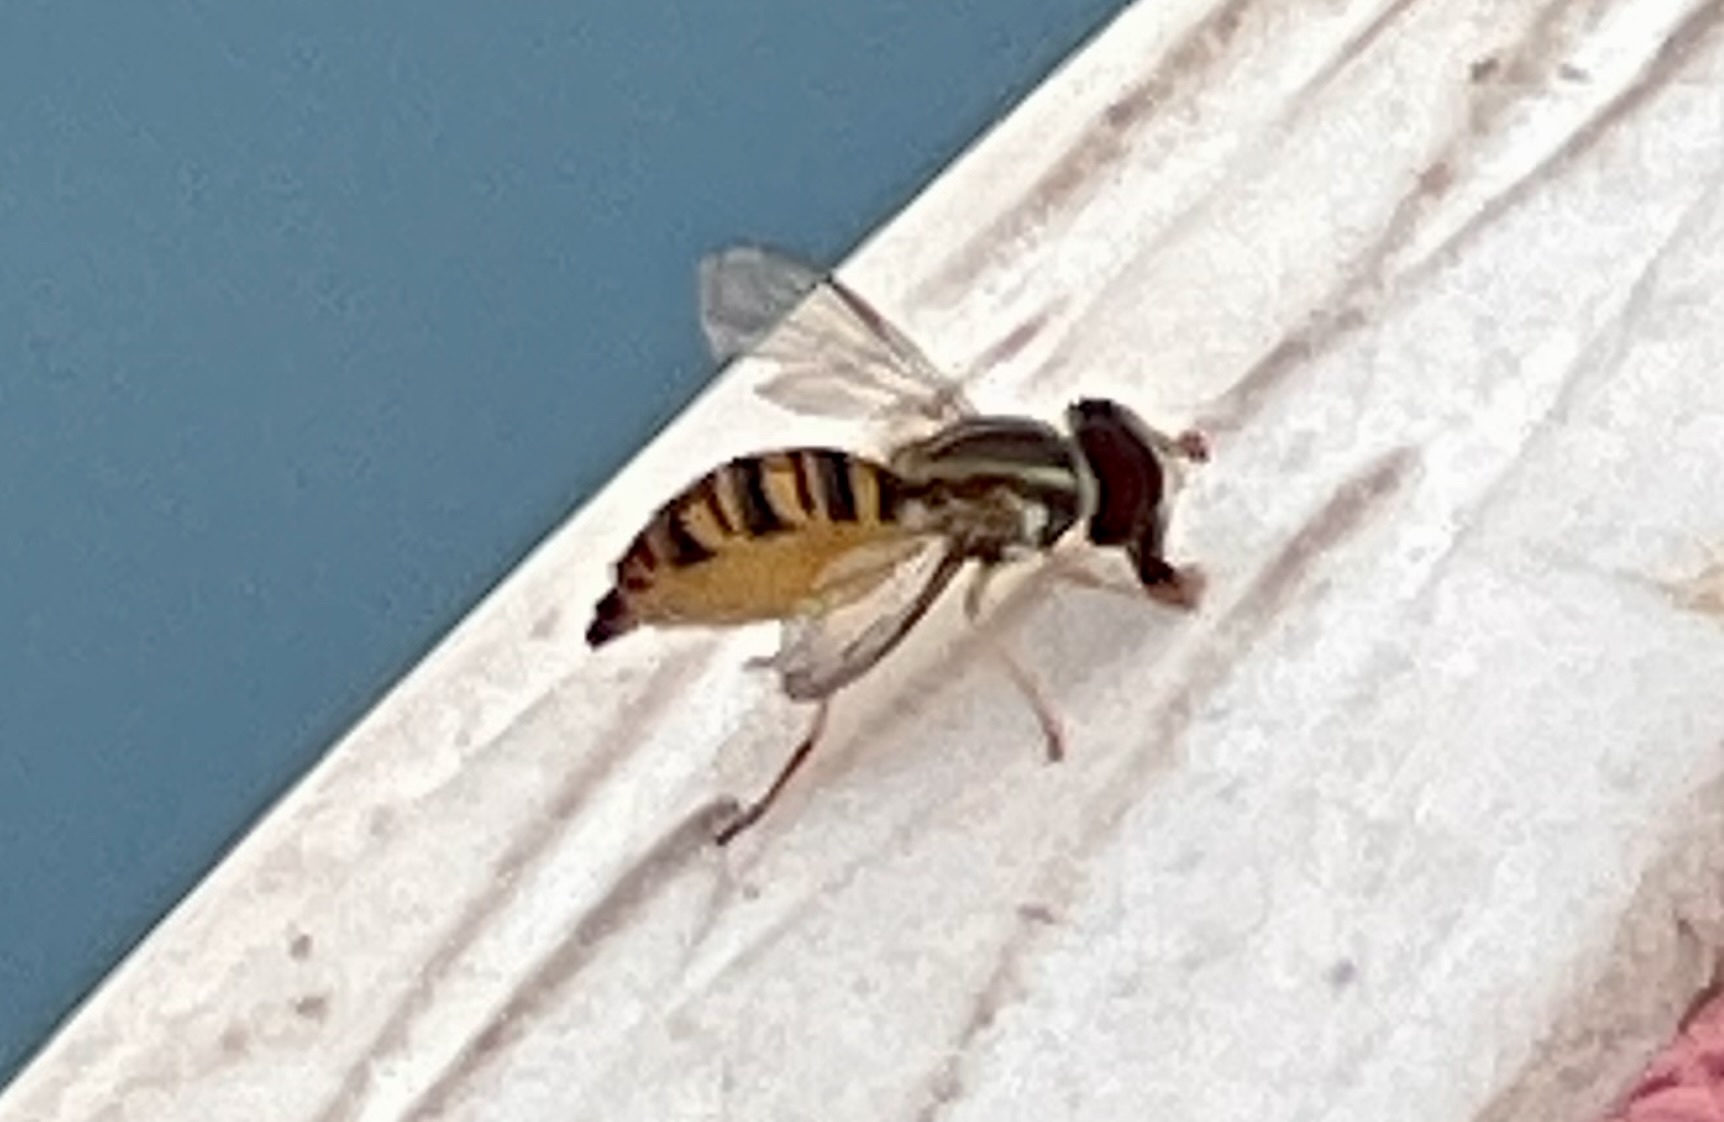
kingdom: Animalia
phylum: Arthropoda
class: Insecta
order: Diptera
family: Syrphidae
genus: Toxomerus
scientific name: Toxomerus politus
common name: Maize calligrapher
